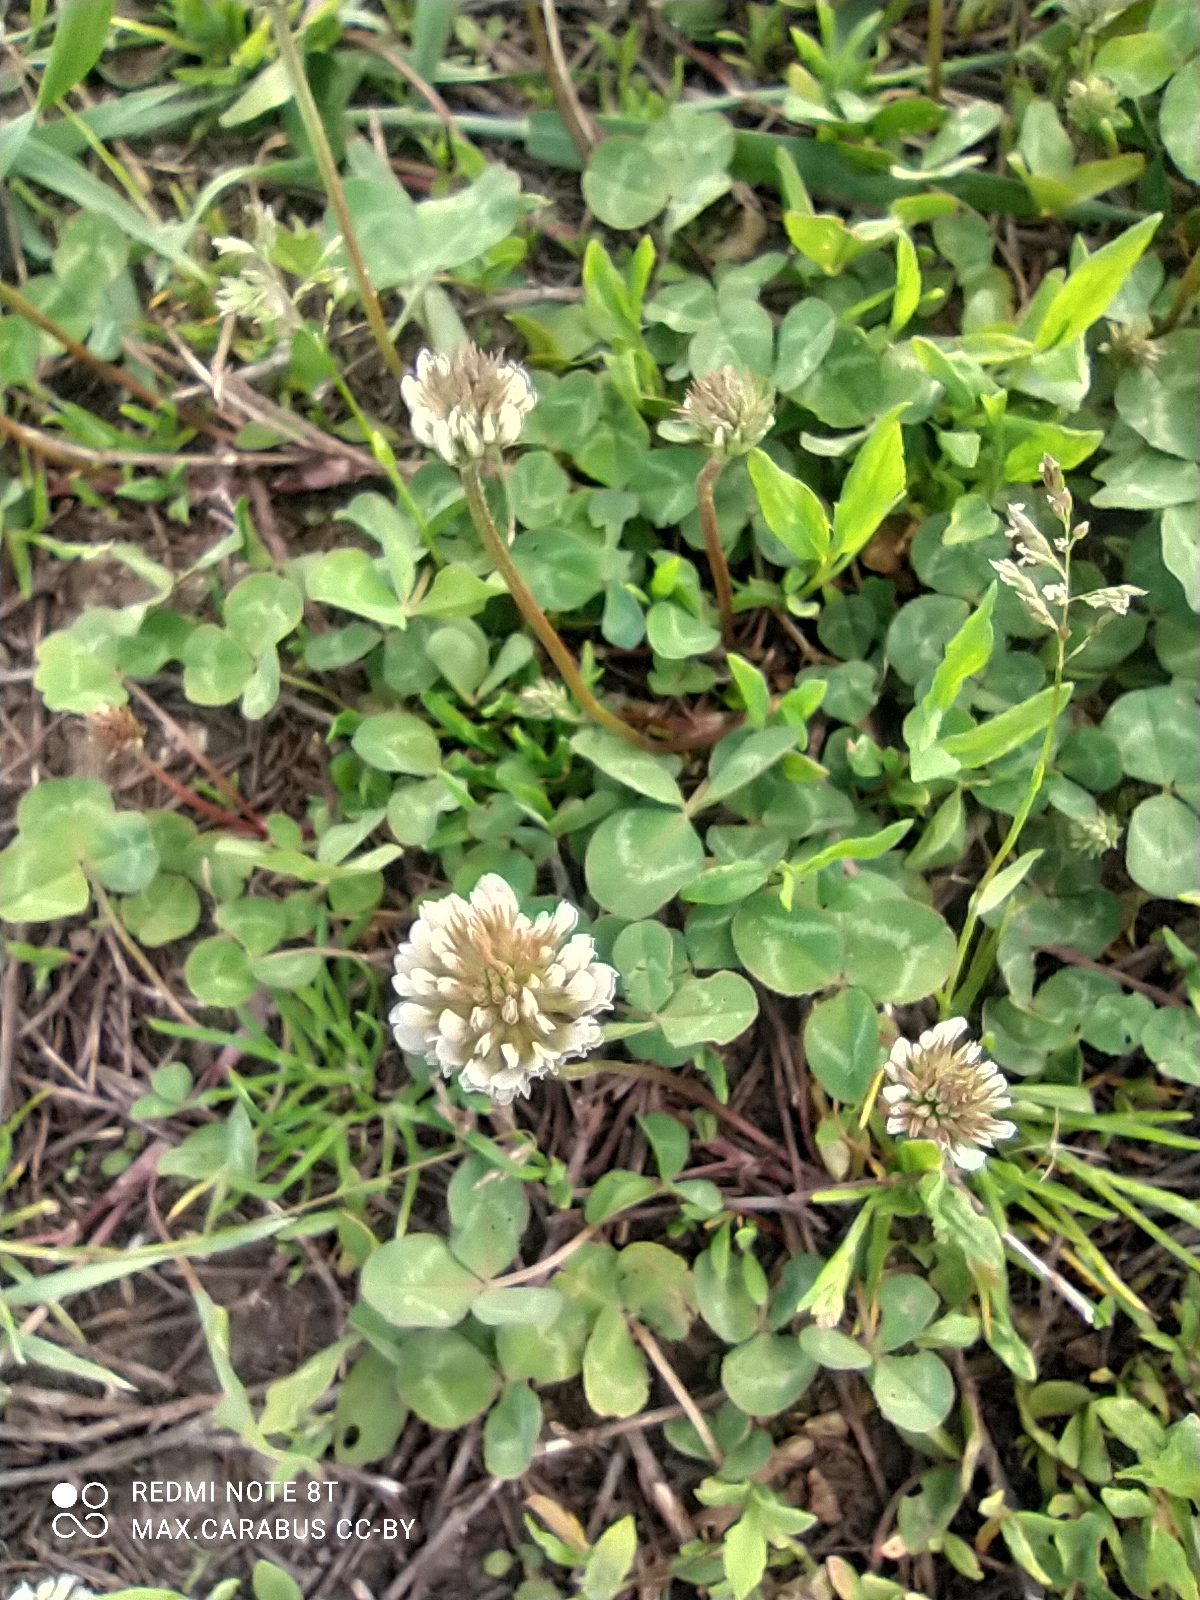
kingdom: Plantae
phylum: Tracheophyta
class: Magnoliopsida
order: Fabales
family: Fabaceae
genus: Trifolium
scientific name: Trifolium repens
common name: White clover
